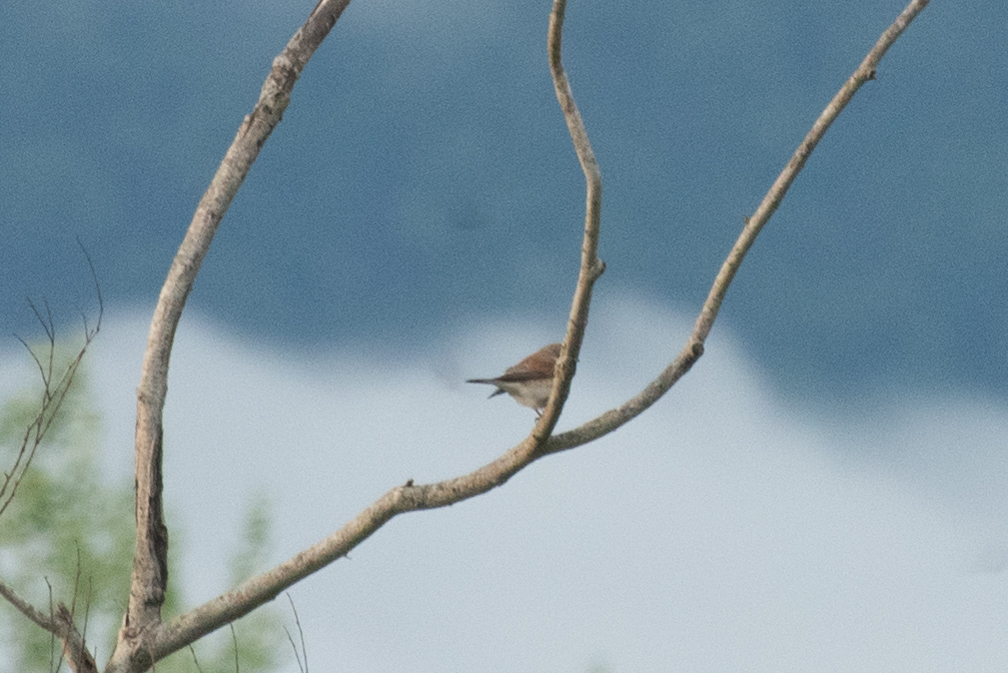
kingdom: Animalia
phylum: Chordata
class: Aves
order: Passeriformes
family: Laniidae
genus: Lanius
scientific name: Lanius collurio
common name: Red-backed shrike
